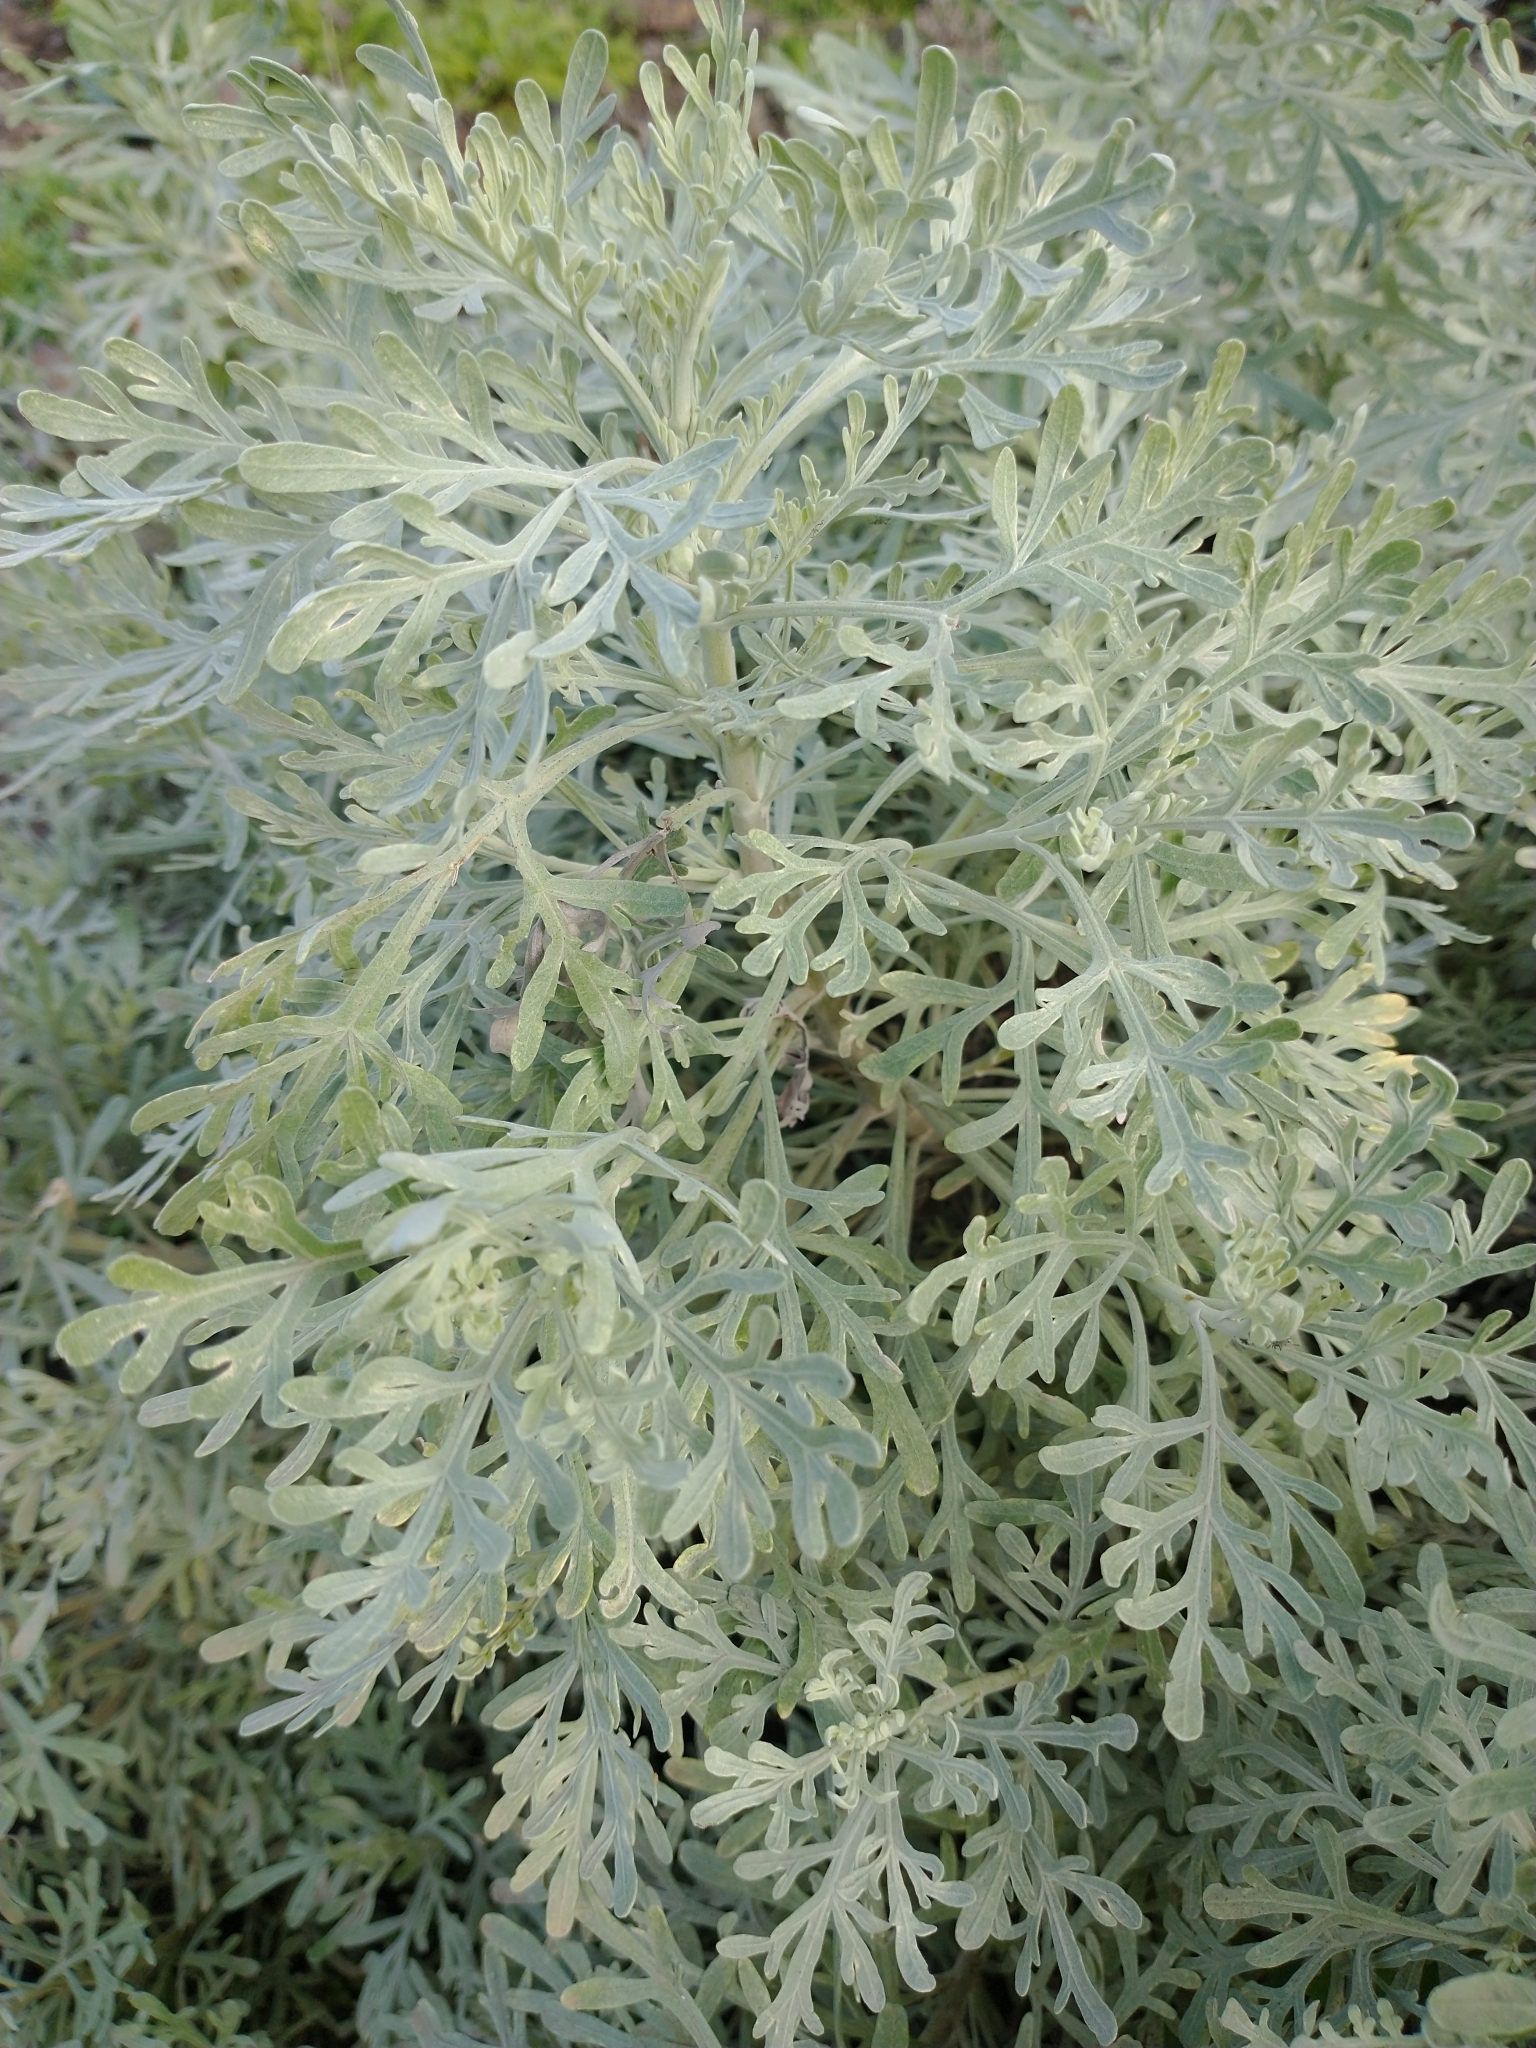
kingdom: Plantae
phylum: Tracheophyta
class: Magnoliopsida
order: Asterales
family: Asteraceae
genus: Artemisia
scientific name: Artemisia thuscula
